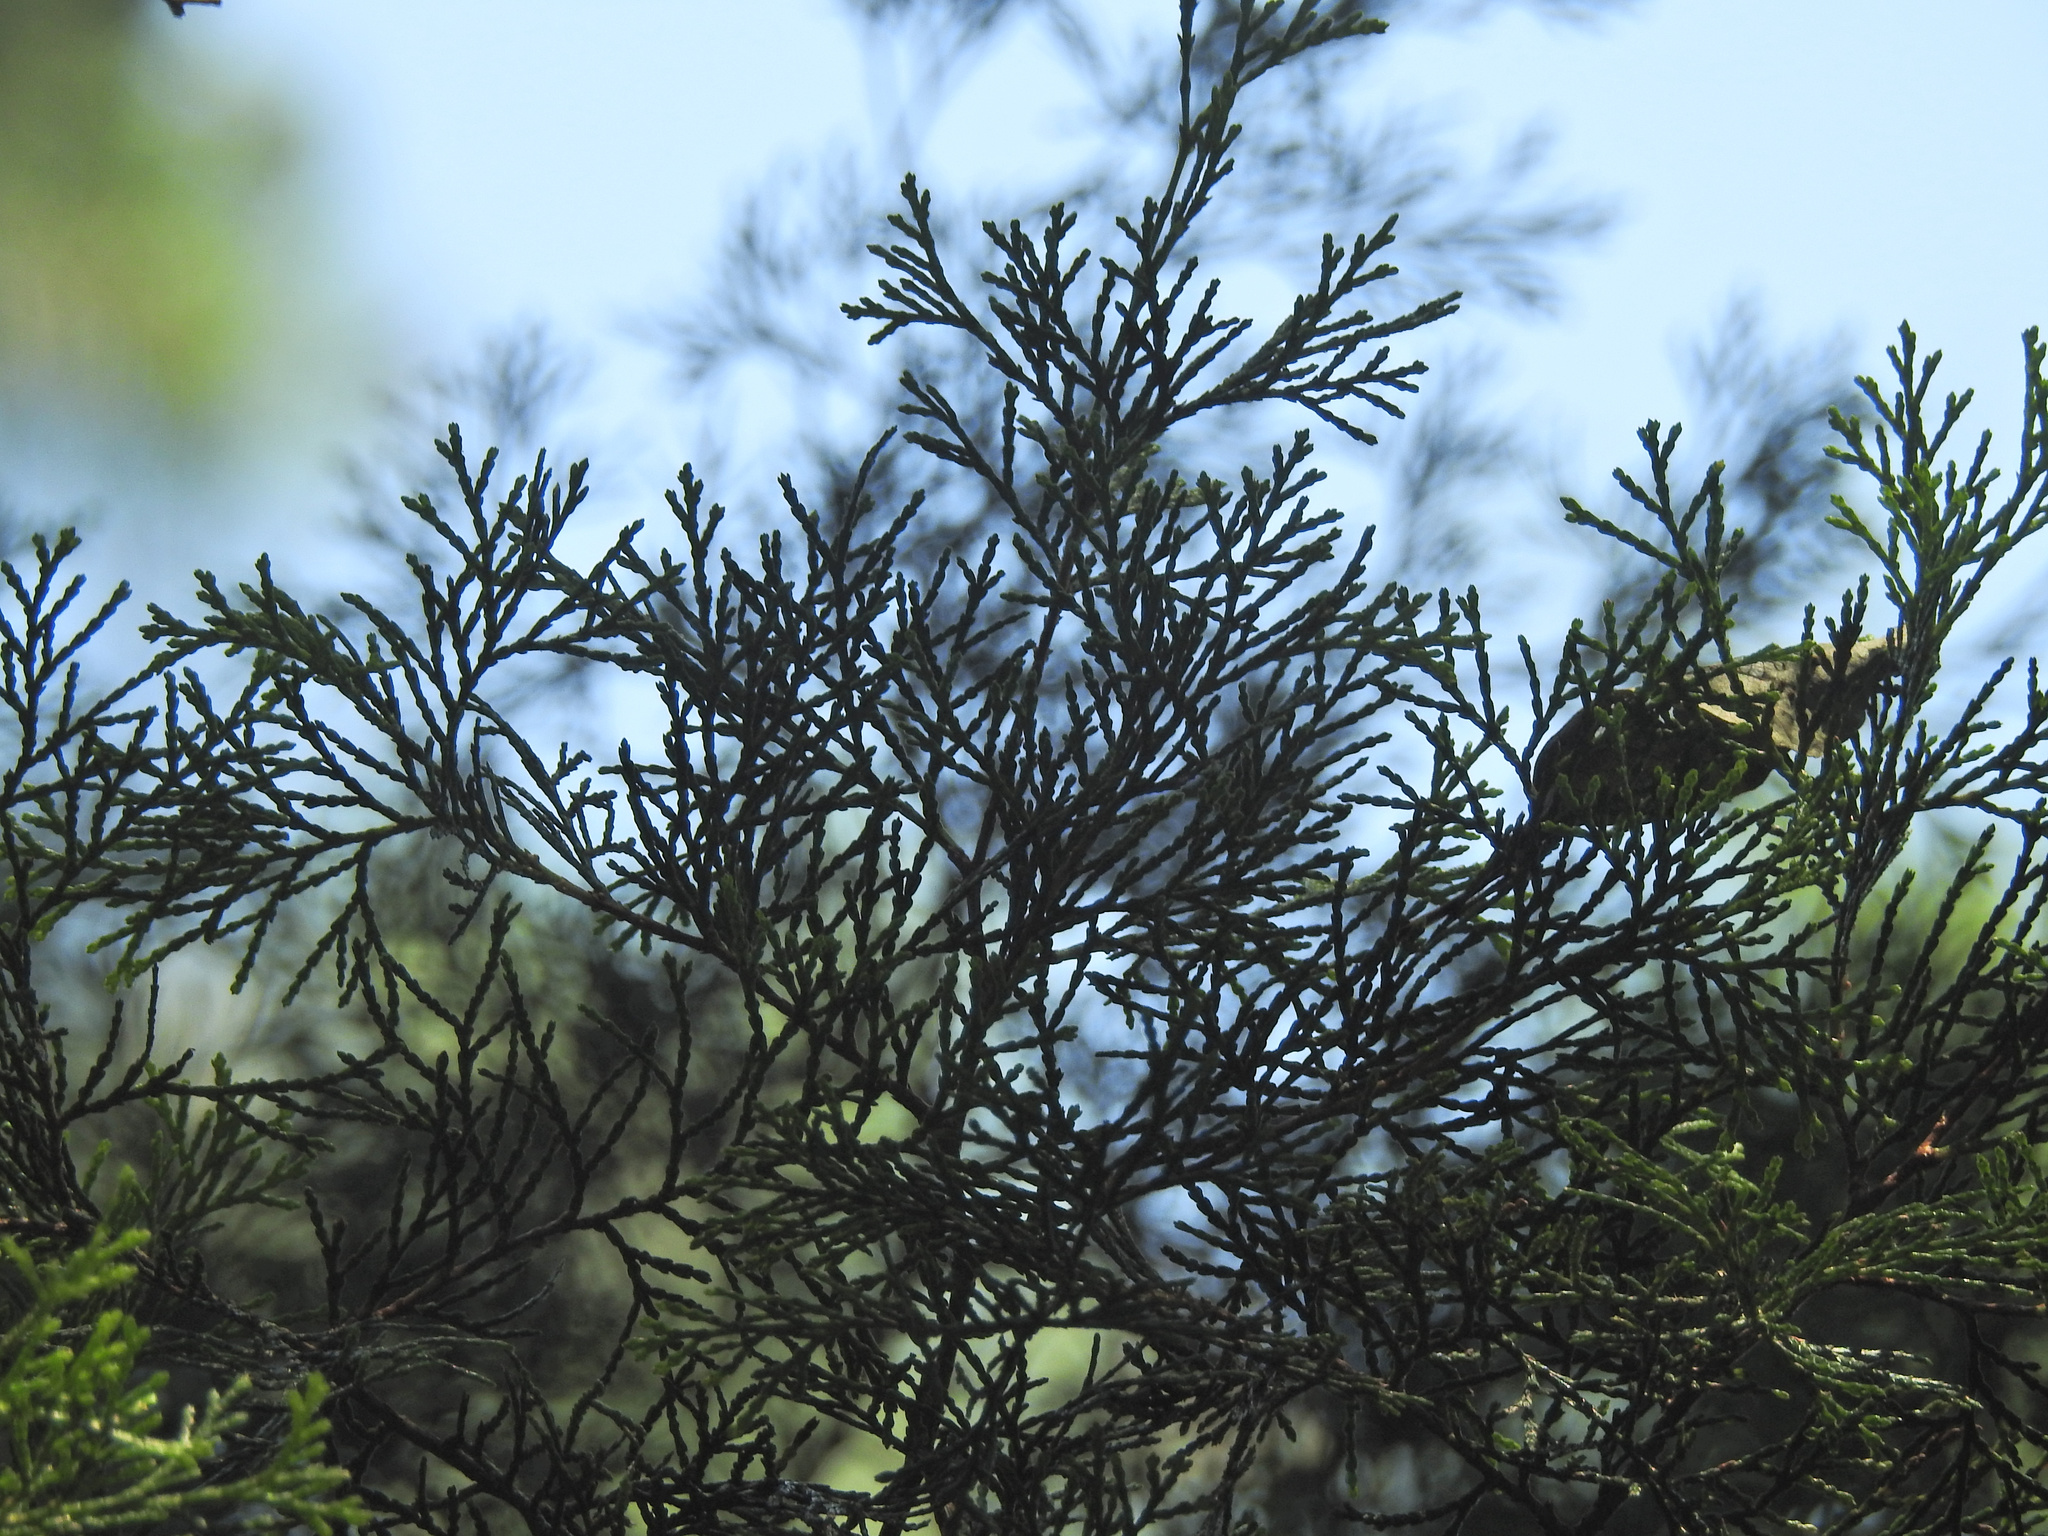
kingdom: Plantae
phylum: Tracheophyta
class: Pinopsida
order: Pinales
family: Cupressaceae
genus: Chamaecyparis
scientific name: Chamaecyparis thyoides
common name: Atlantic white cedar
